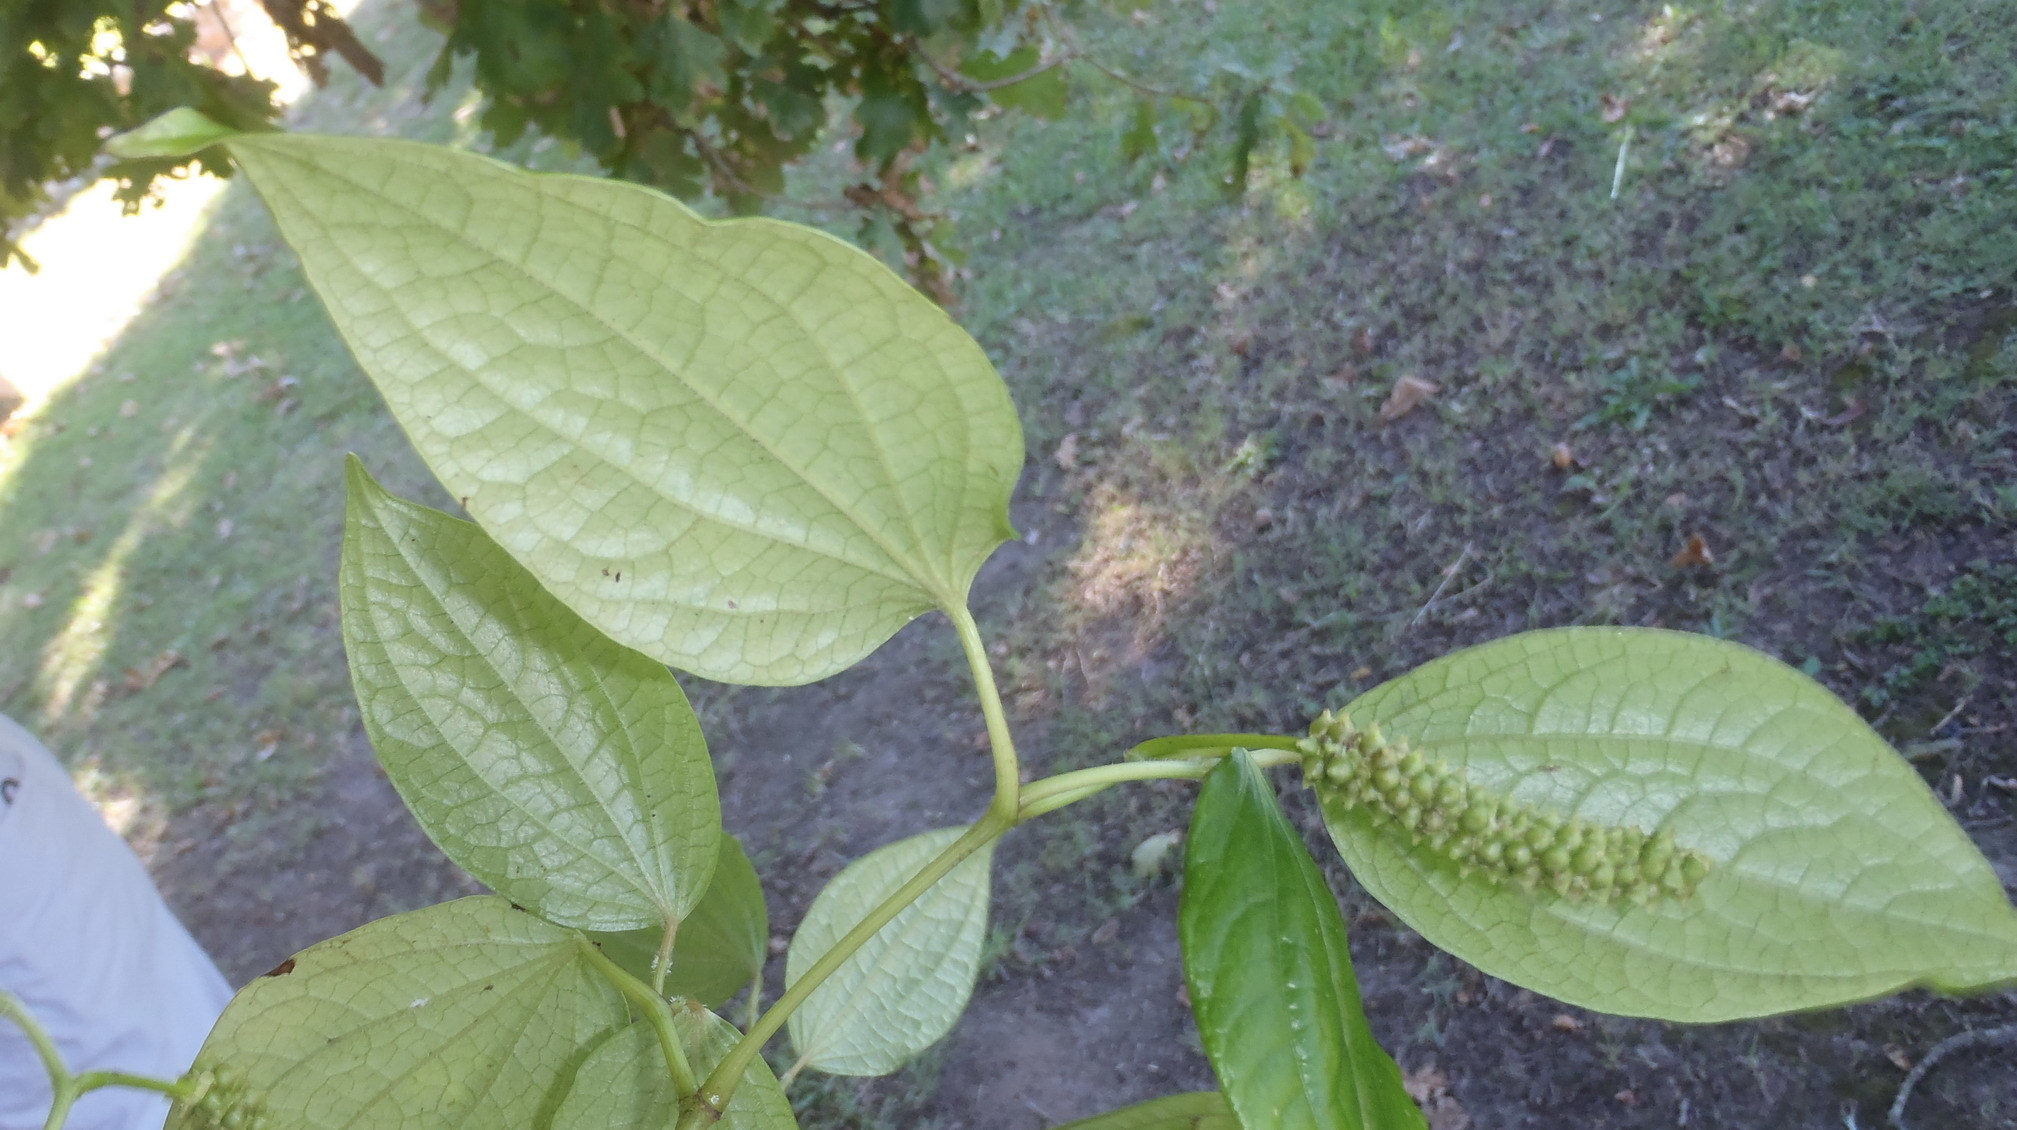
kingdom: Plantae
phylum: Tracheophyta
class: Magnoliopsida
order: Piperales
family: Piperaceae
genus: Piper
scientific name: Piper capense
